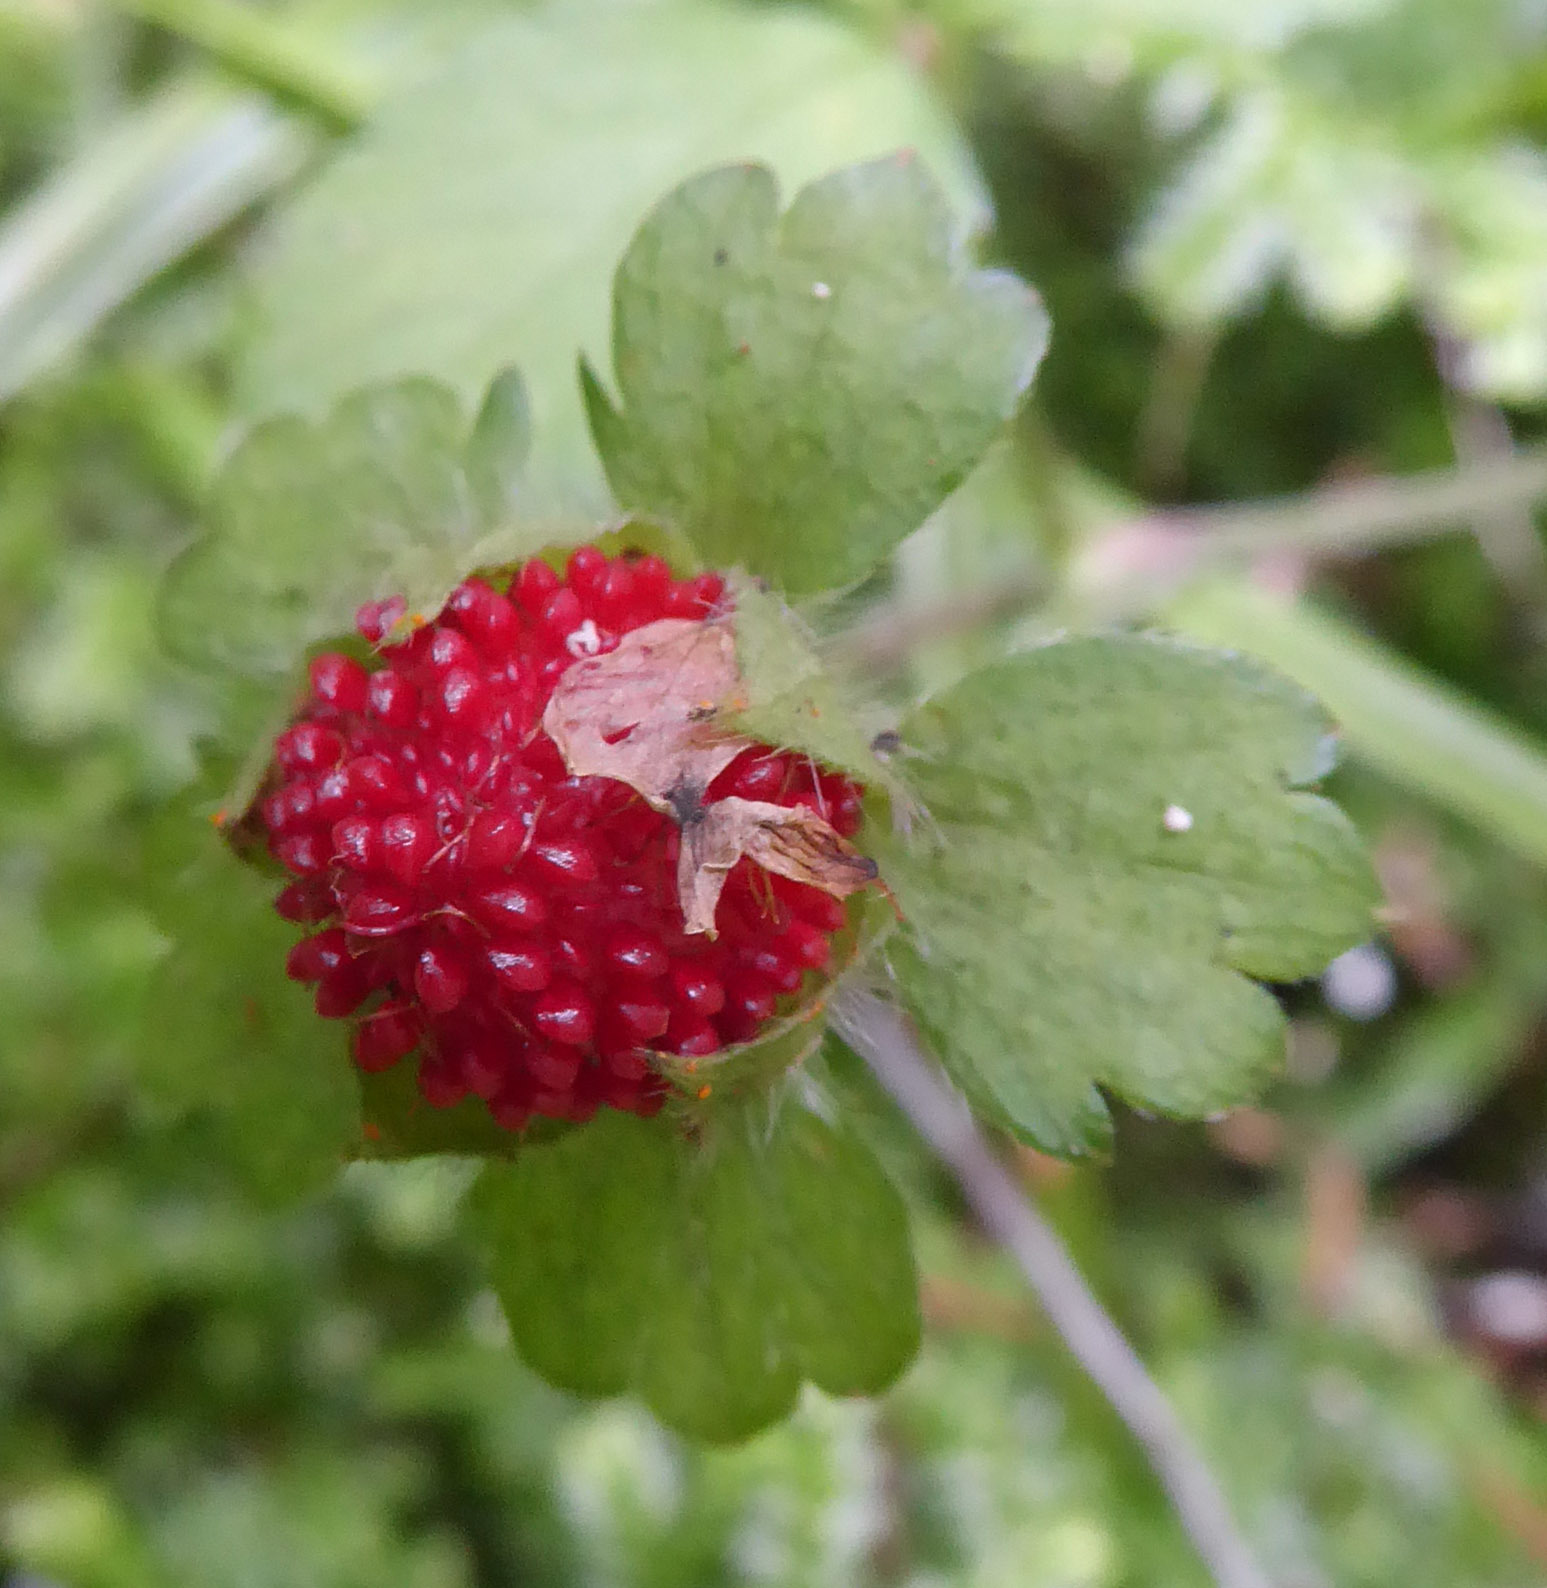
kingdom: Plantae
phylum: Tracheophyta
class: Magnoliopsida
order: Rosales
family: Rosaceae
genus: Potentilla
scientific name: Potentilla indica
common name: Yellow-flowered strawberry
